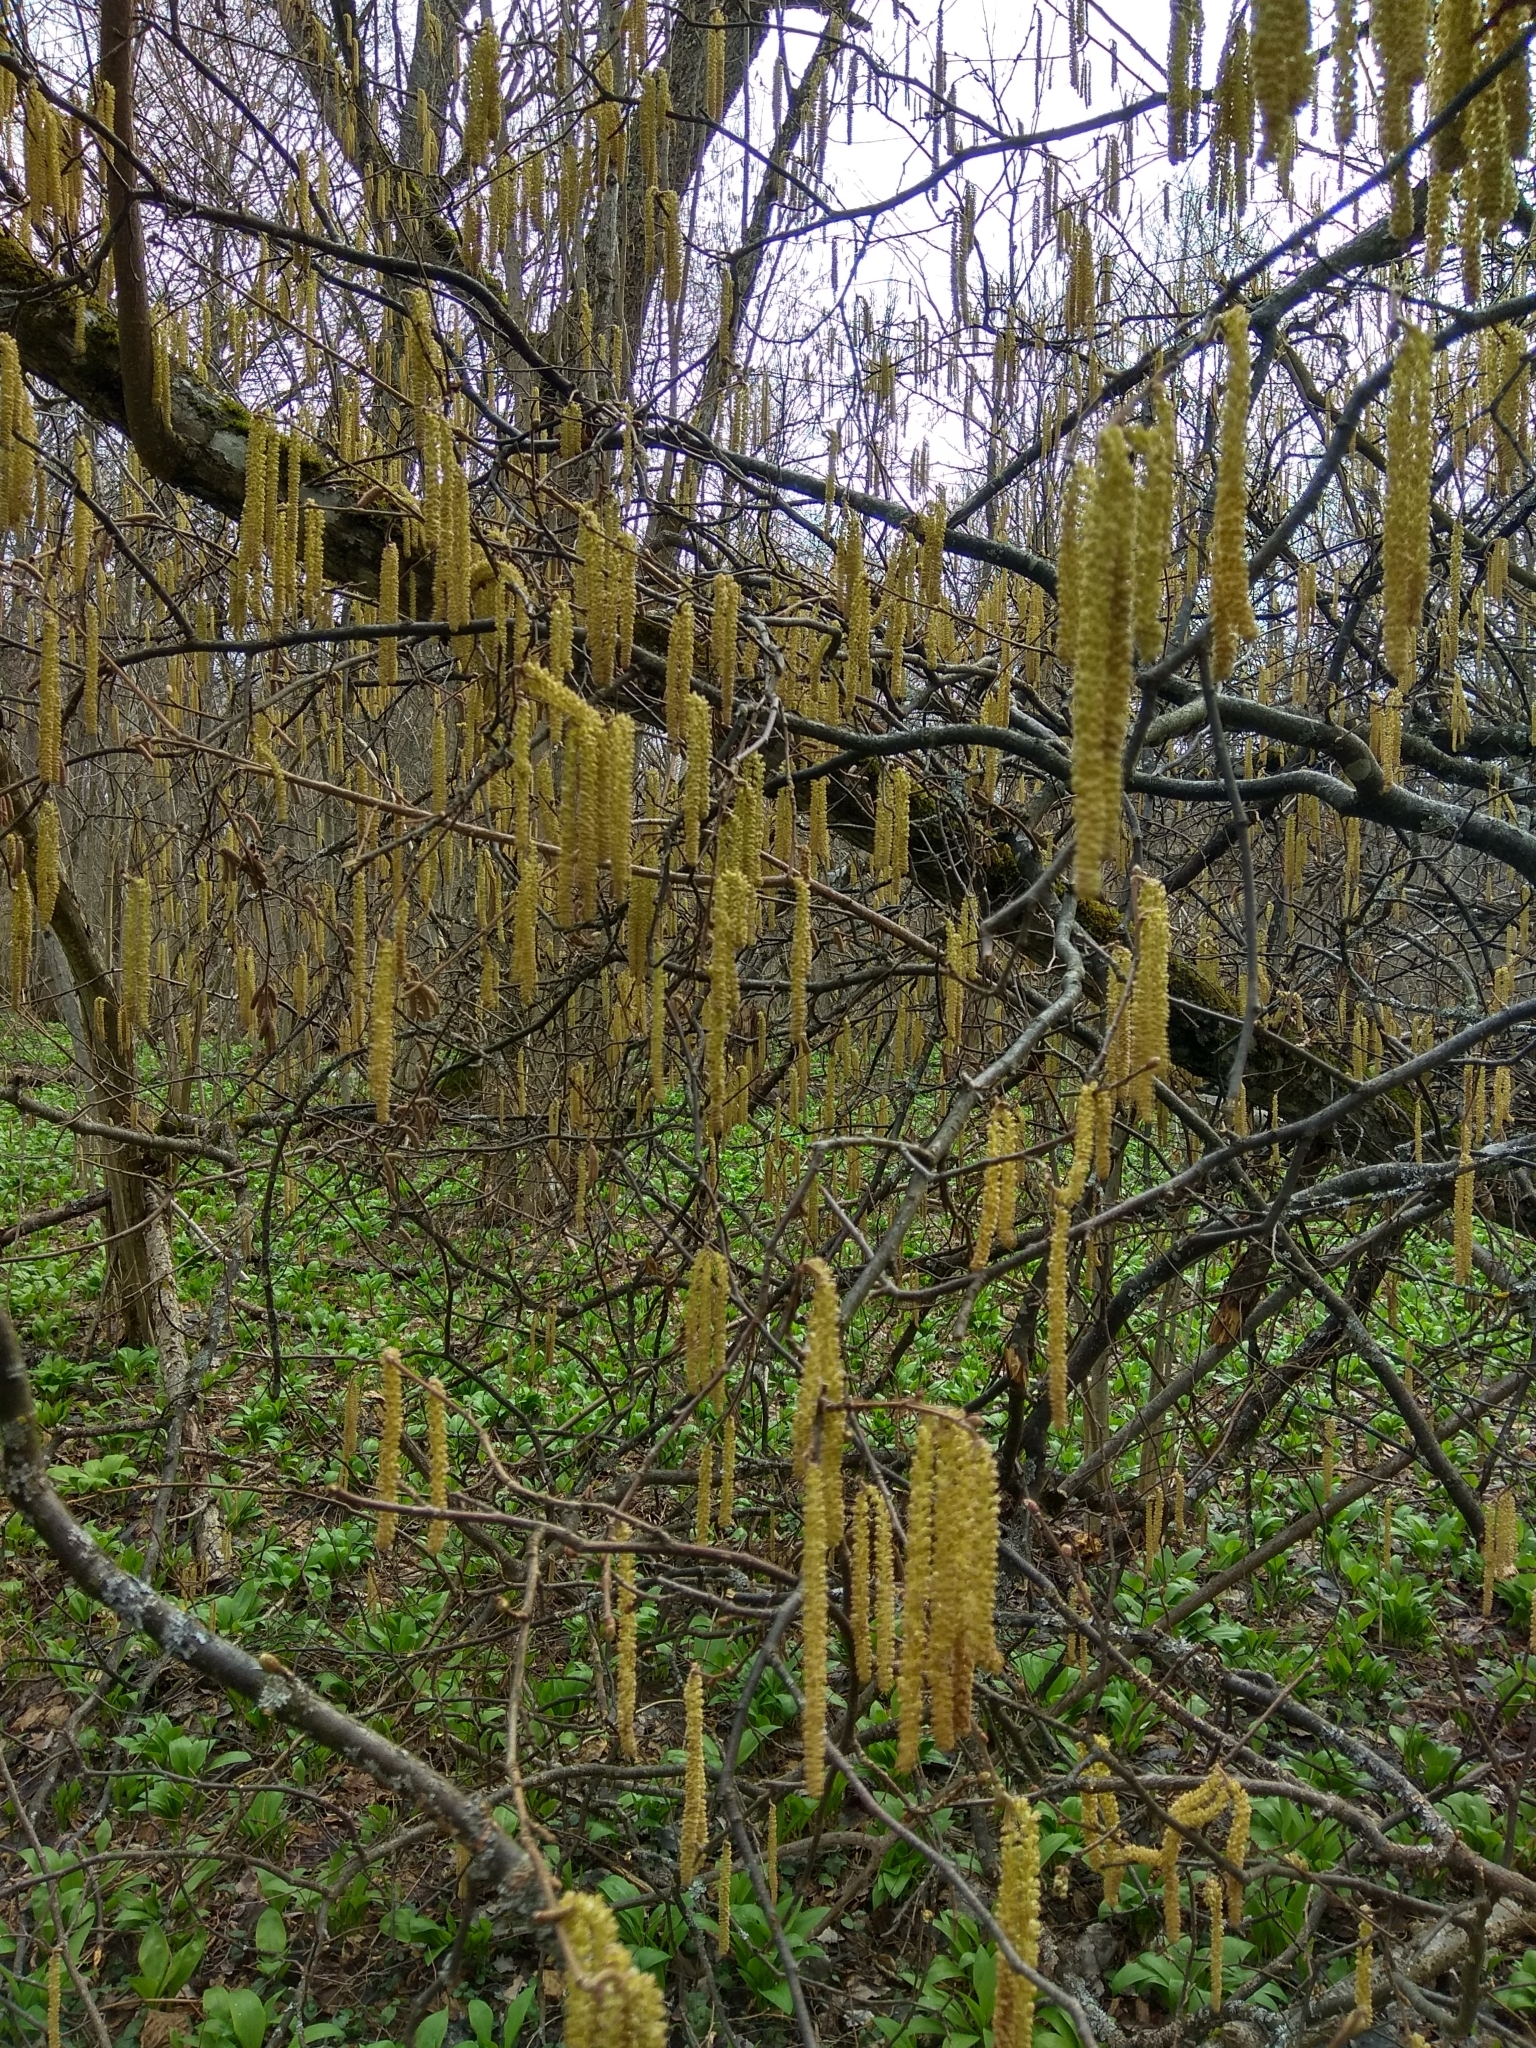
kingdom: Plantae
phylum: Tracheophyta
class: Magnoliopsida
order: Fagales
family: Betulaceae
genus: Corylus
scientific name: Corylus avellana
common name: European hazel
